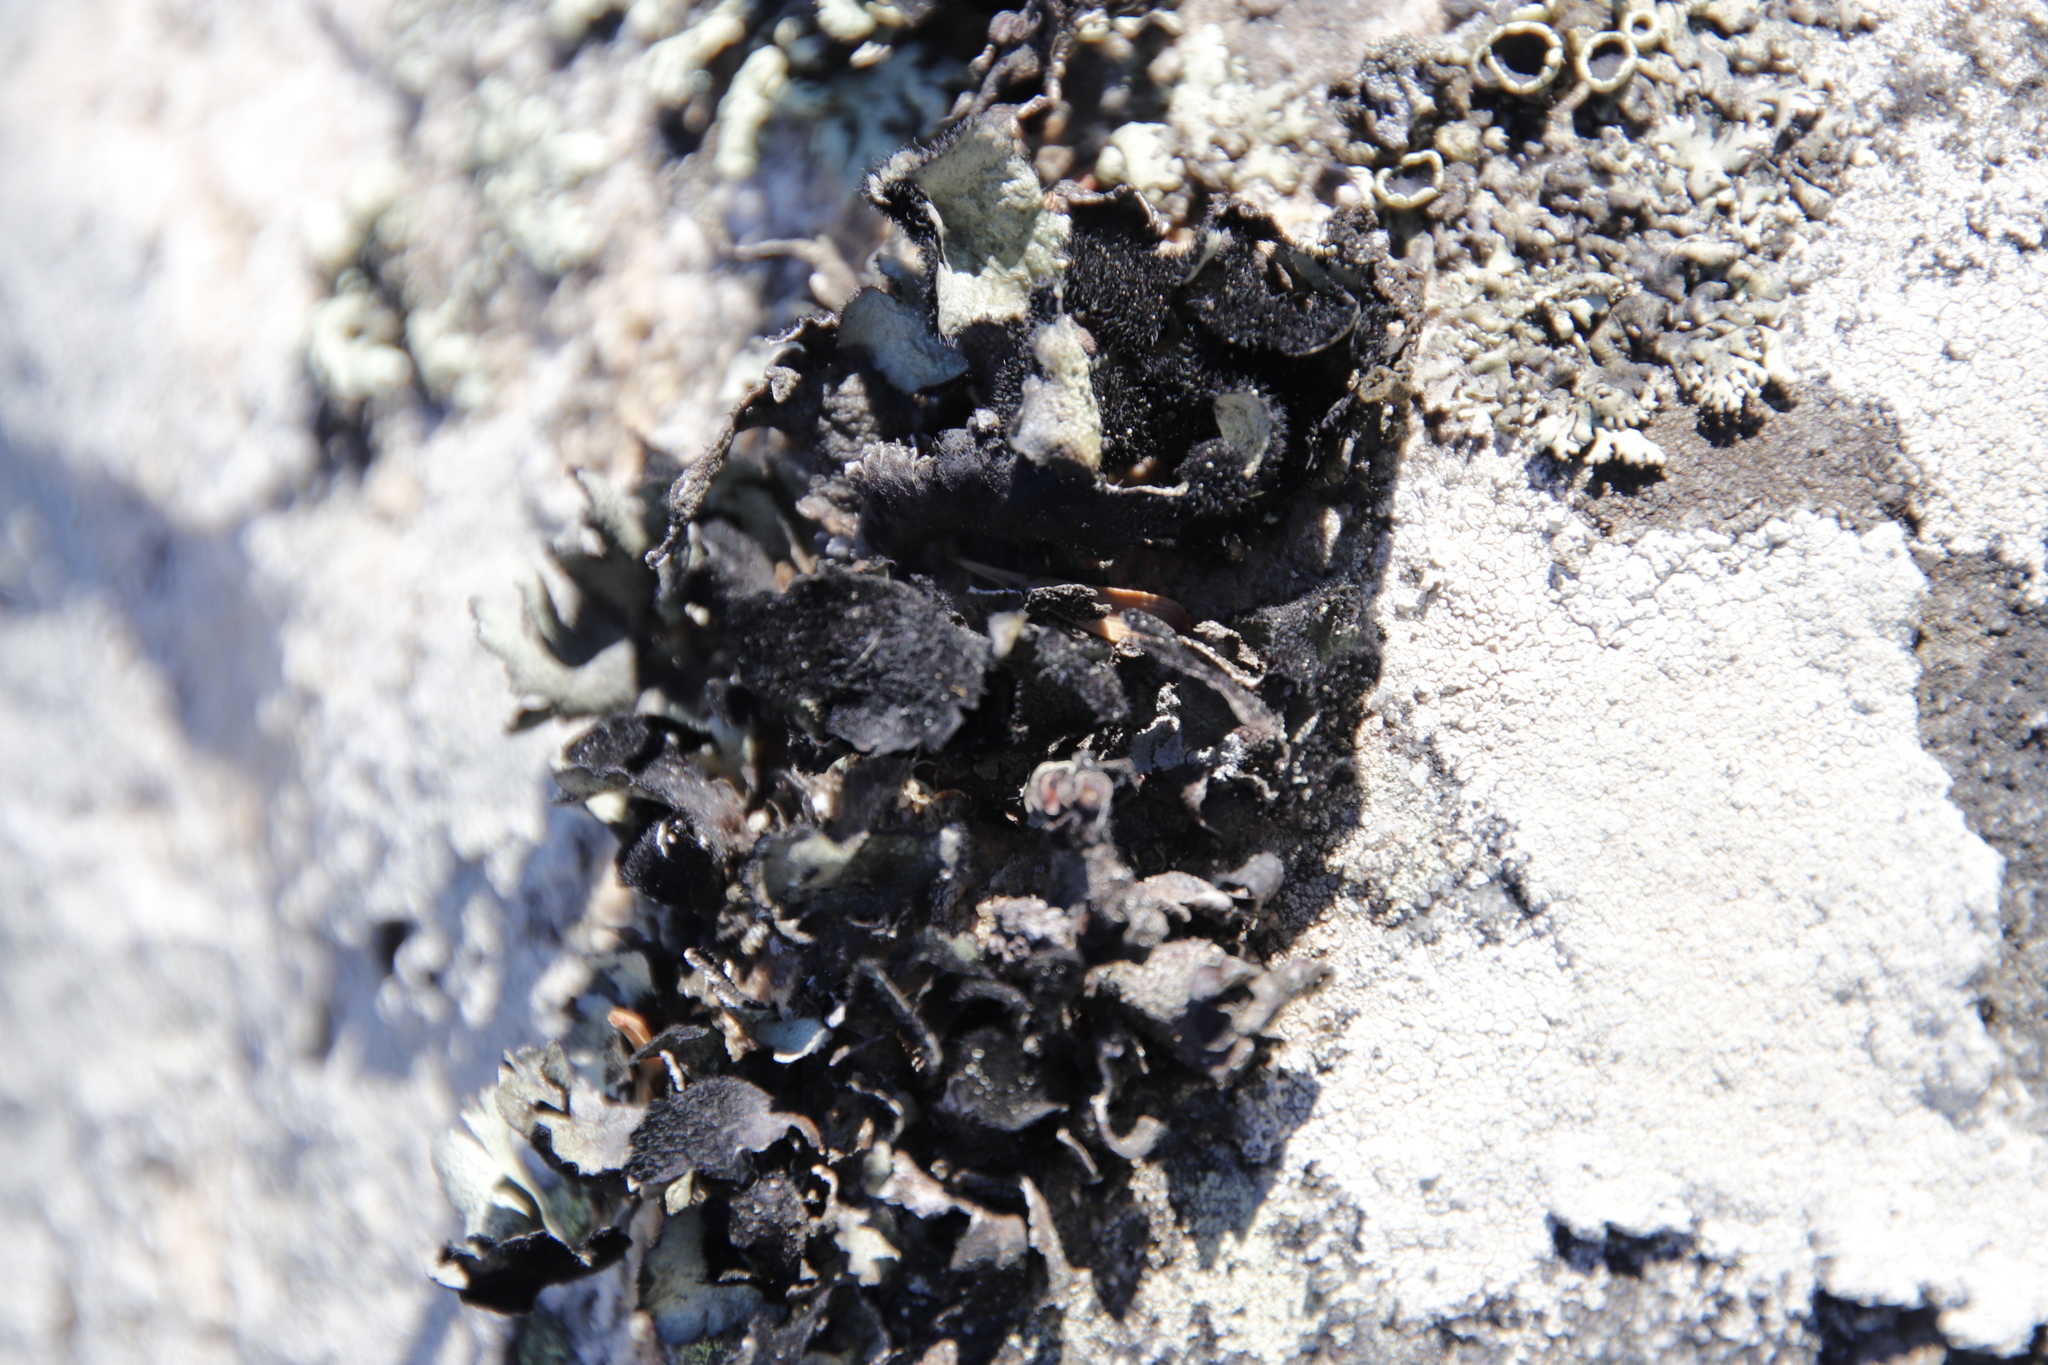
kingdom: Fungi
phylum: Ascomycota
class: Lecanoromycetes
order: Lecanorales
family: Parmeliaceae
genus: Xanthoparmelia
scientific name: Xanthoparmelia hottentotta
